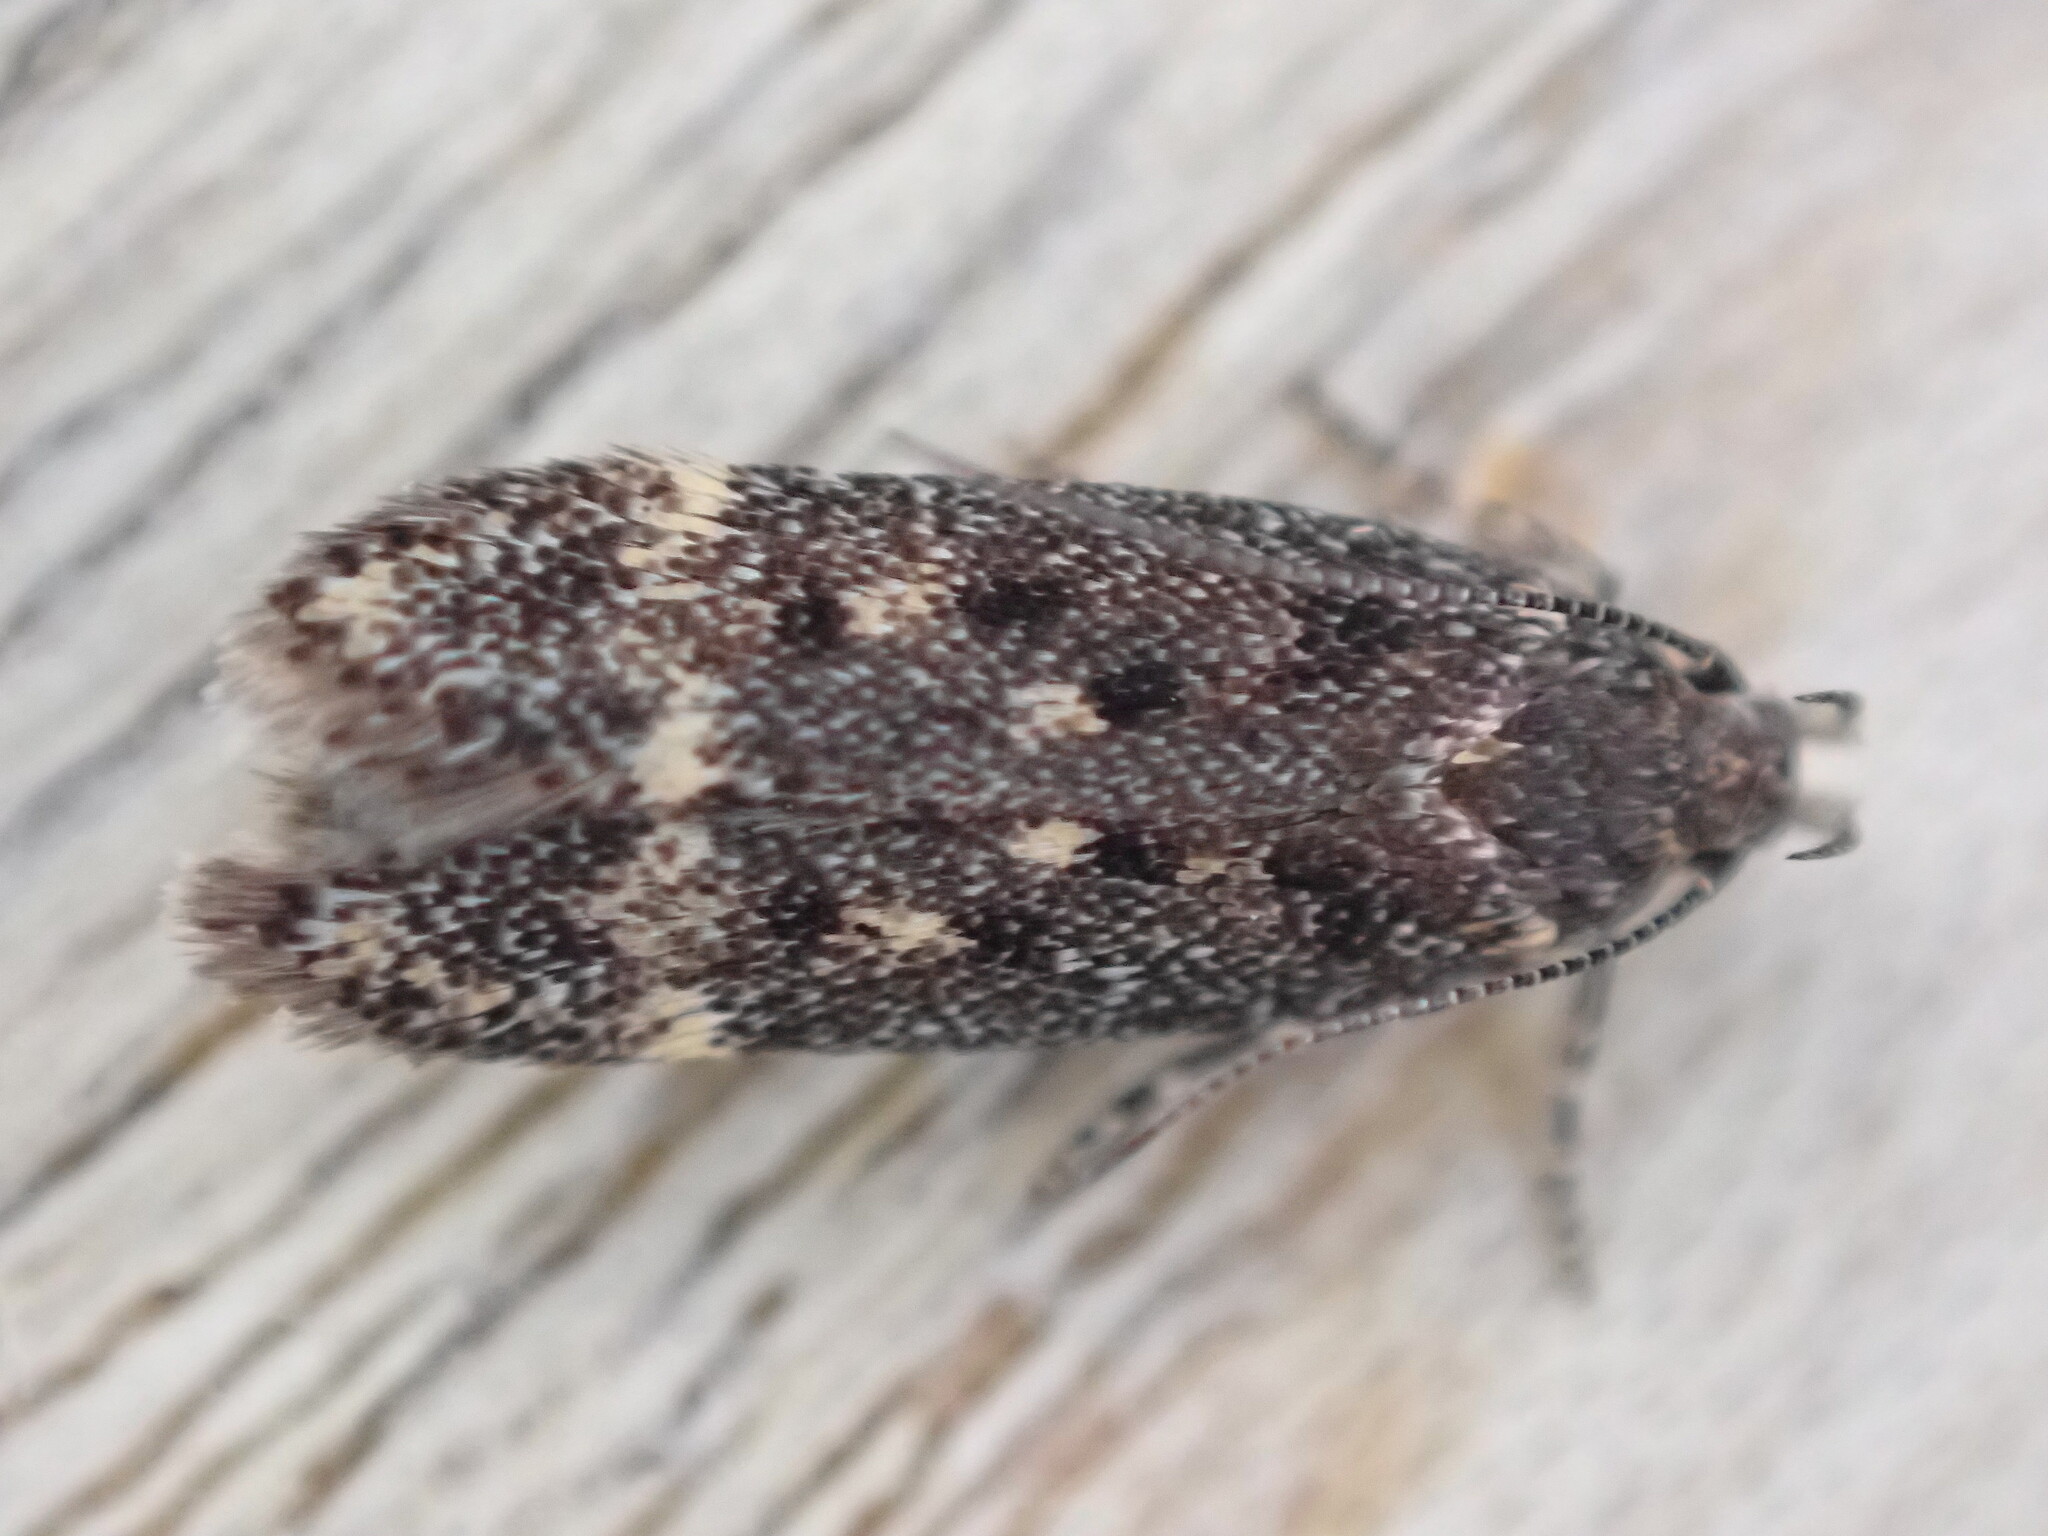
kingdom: Animalia
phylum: Arthropoda
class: Insecta
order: Lepidoptera
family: Gelechiidae
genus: Bryotropha
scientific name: Bryotropha affinis
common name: Dark groundling
